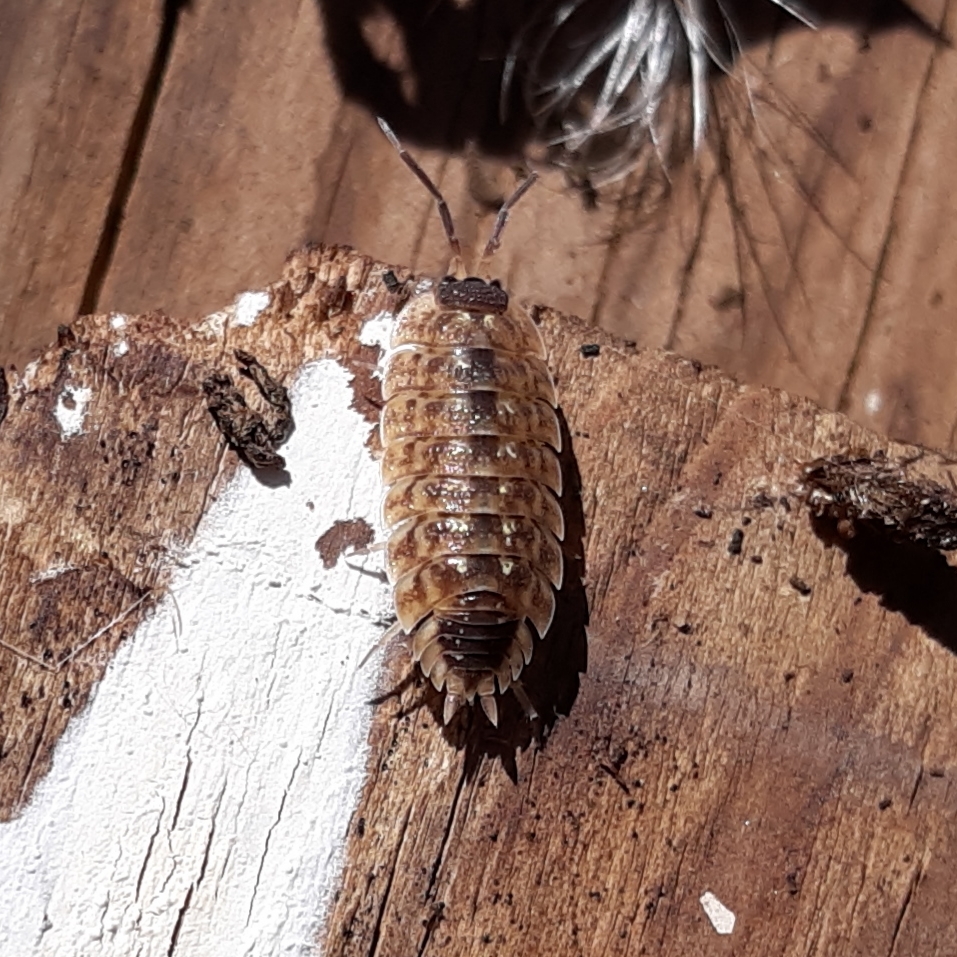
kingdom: Animalia
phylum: Arthropoda
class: Malacostraca
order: Isopoda
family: Porcellionidae
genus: Porcellio
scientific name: Porcellio spinicornis
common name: Painted woodlouse
